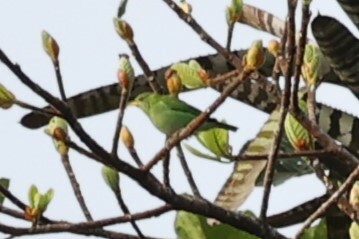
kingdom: Animalia
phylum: Chordata
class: Aves
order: Passeriformes
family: Thraupidae
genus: Chlorophanes
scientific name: Chlorophanes spiza
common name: Green honeycreeper
